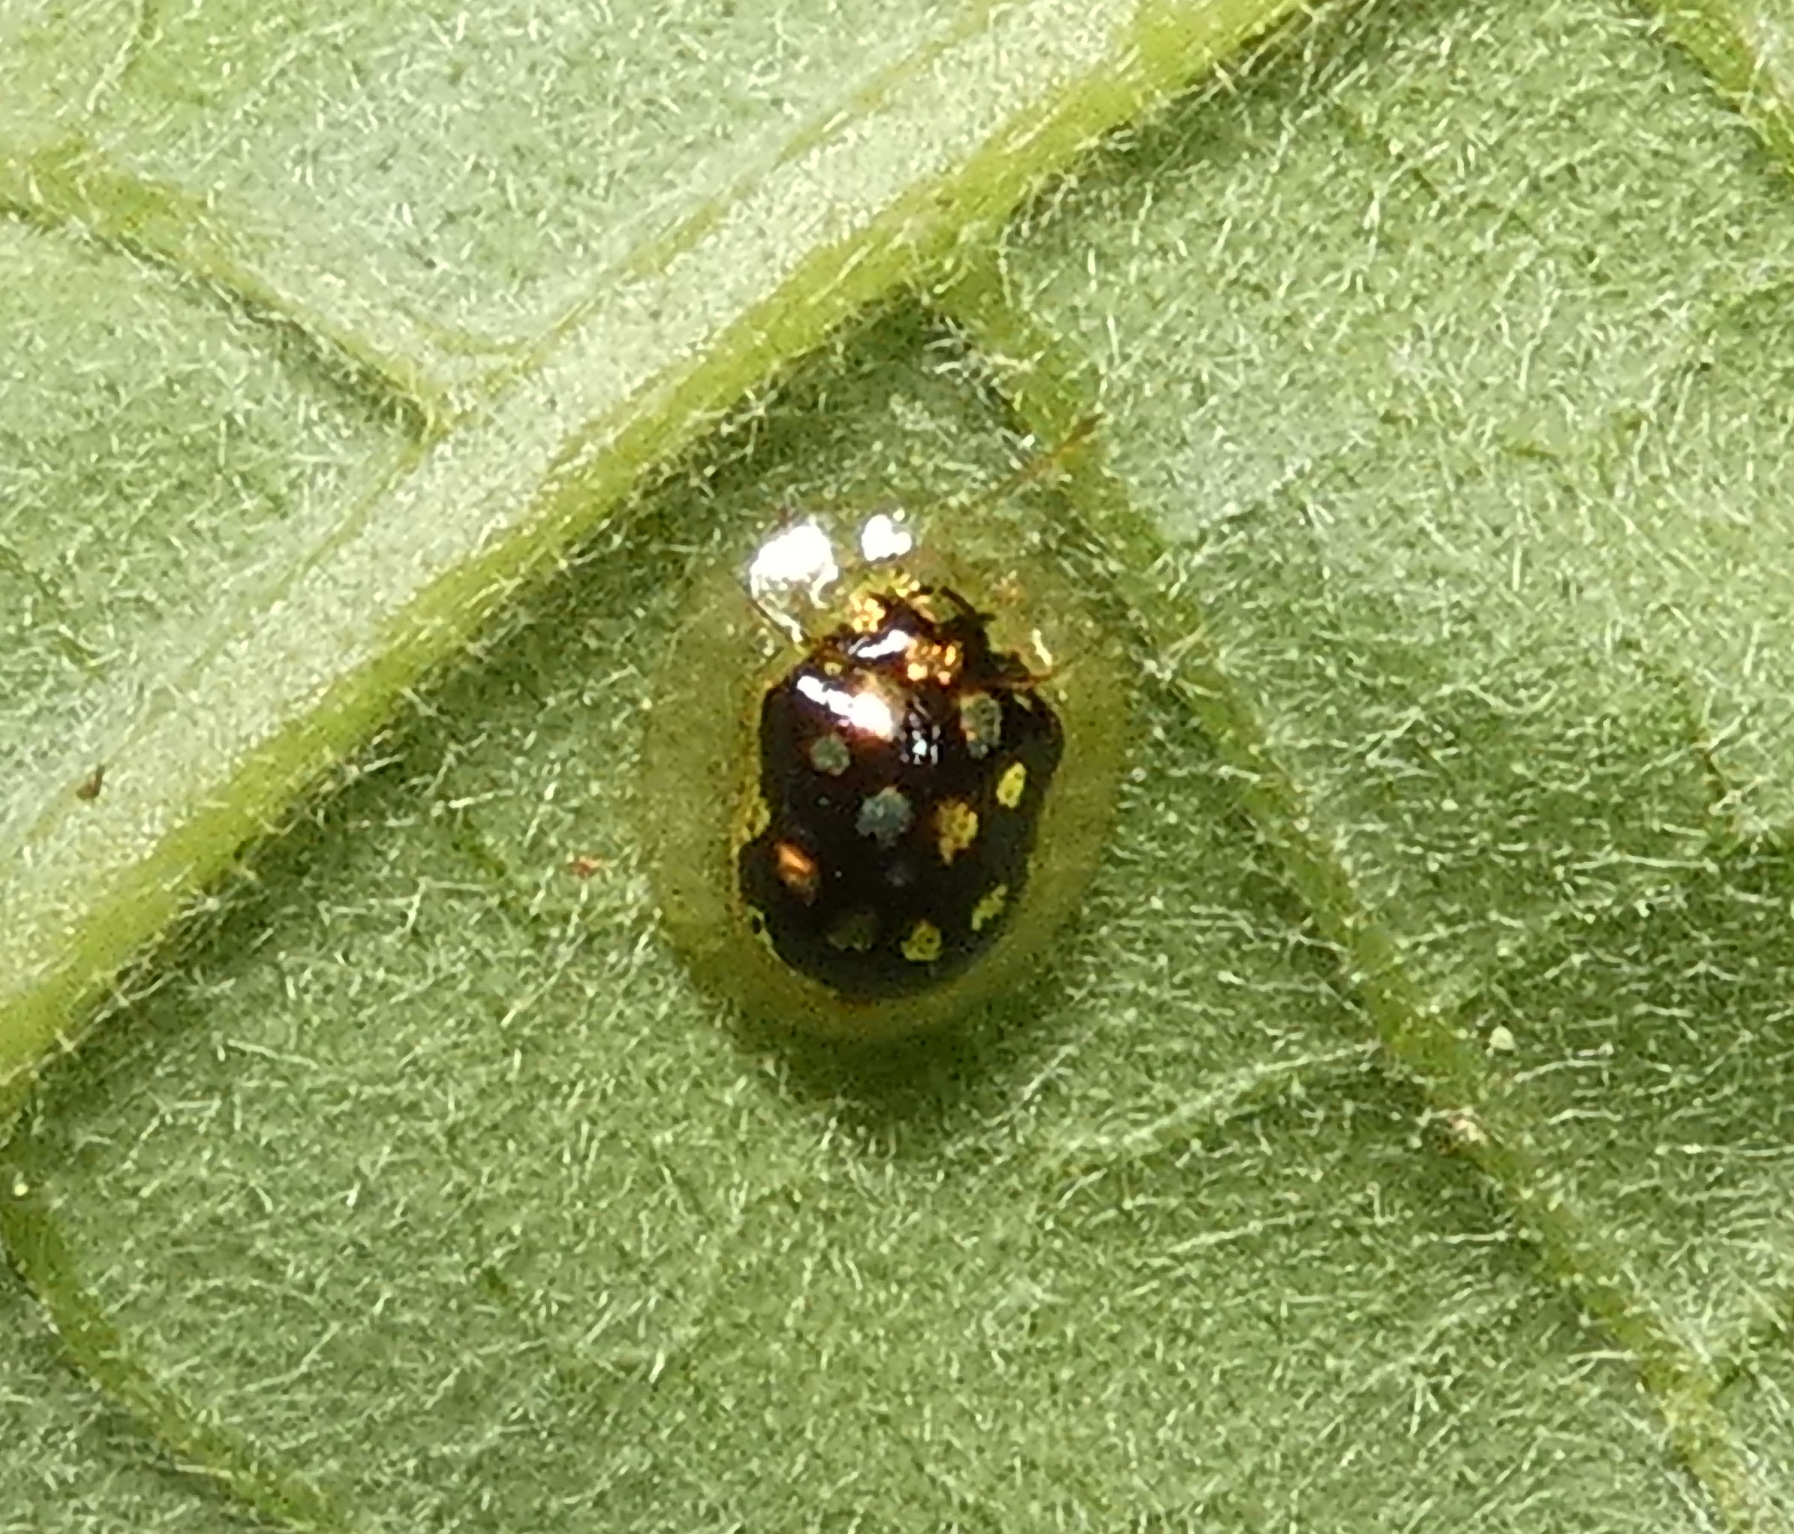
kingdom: Animalia
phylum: Arthropoda
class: Insecta
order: Coleoptera
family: Chrysomelidae
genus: Plagiometriona
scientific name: Plagiometriona microcera
